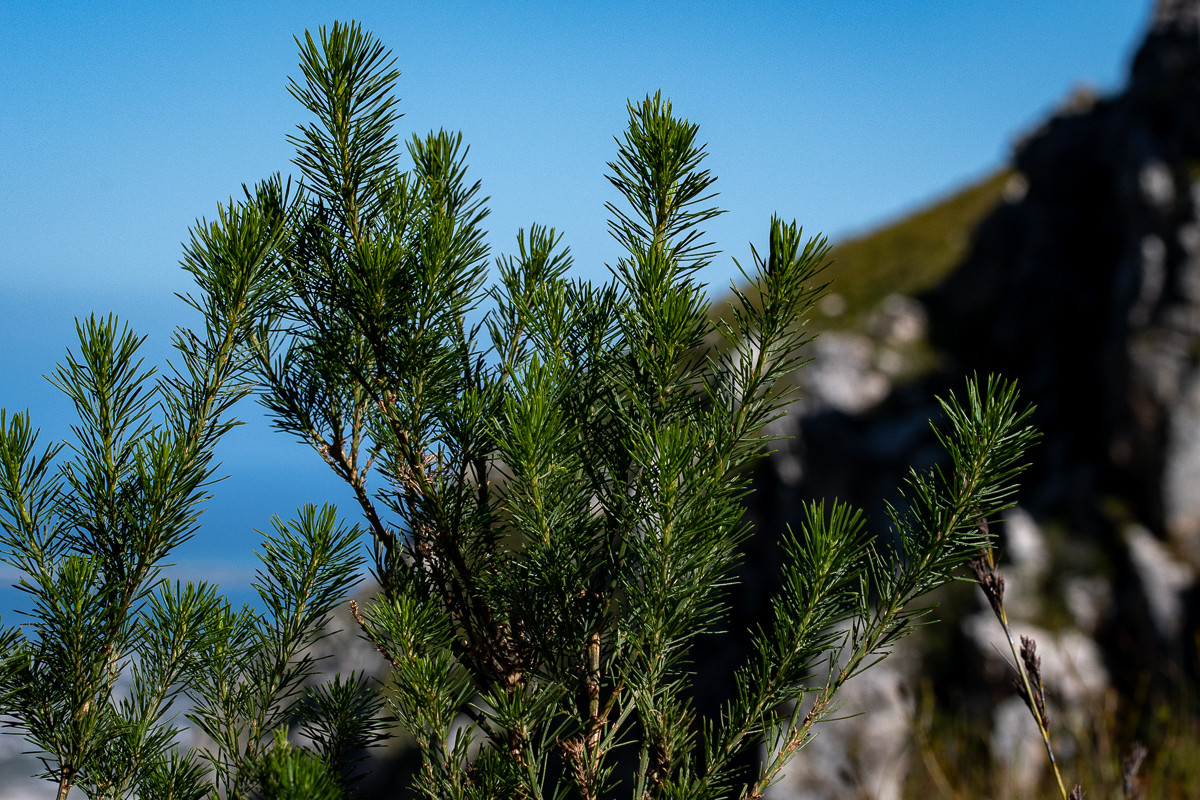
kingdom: Plantae
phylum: Tracheophyta
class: Magnoliopsida
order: Fabales
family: Fabaceae
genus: Psoralea
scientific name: Psoralea pinnata
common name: African scurfpea
